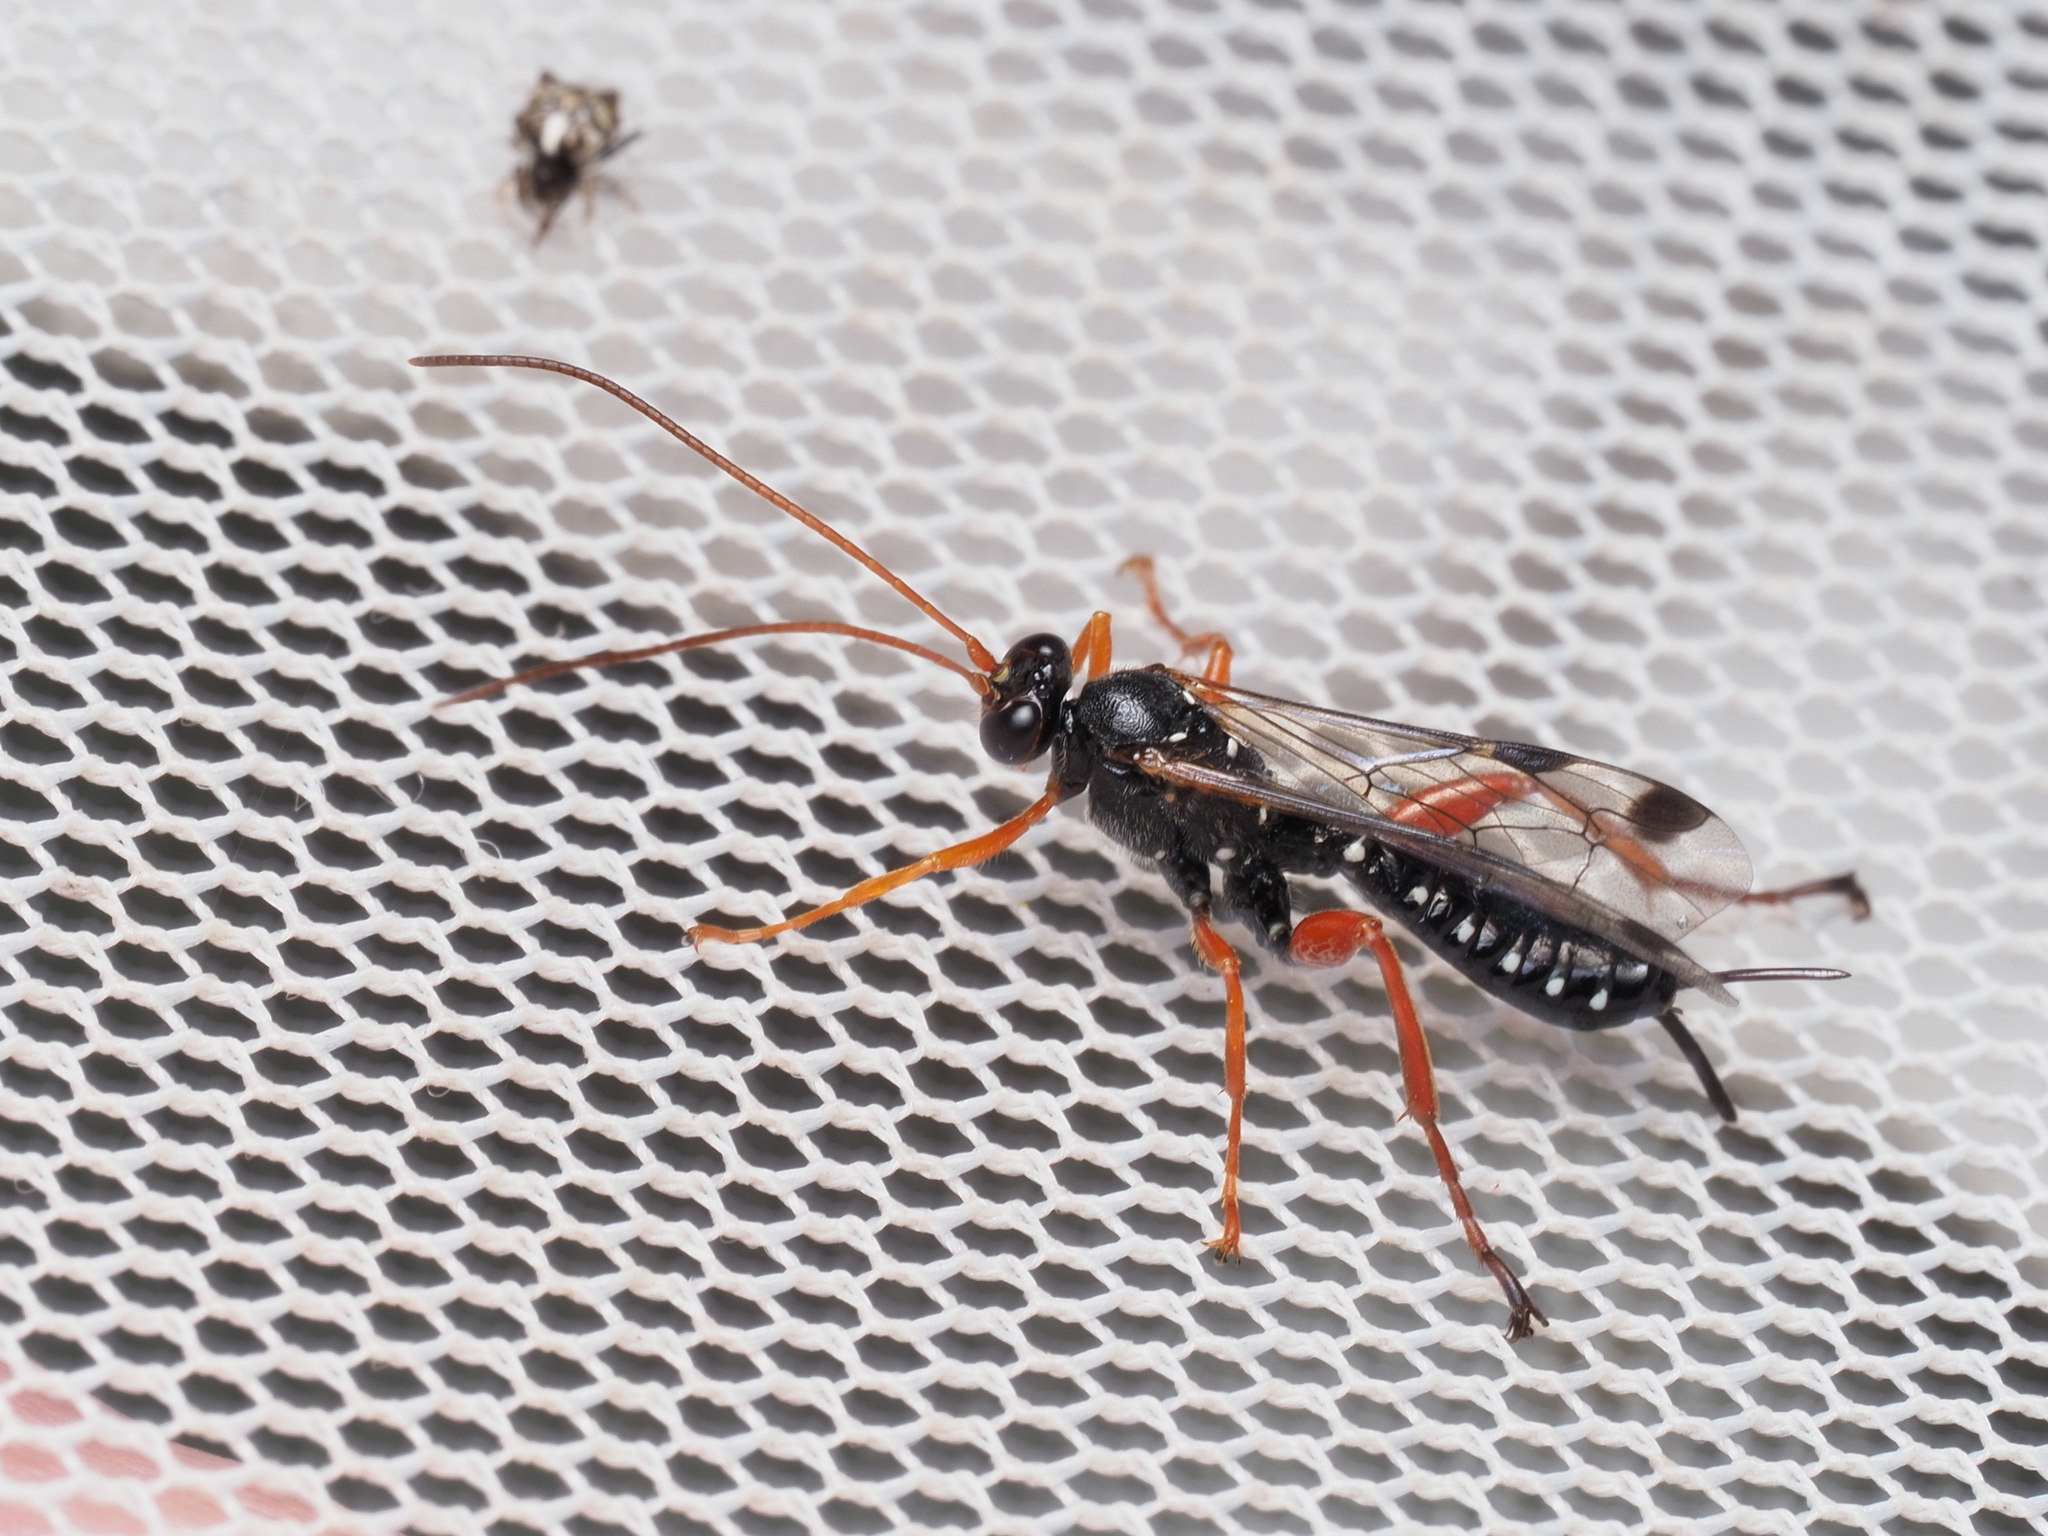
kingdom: Animalia
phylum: Arthropoda
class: Insecta
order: Hymenoptera
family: Ichneumonidae
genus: Echthromorpha
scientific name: Echthromorpha intricatoria
